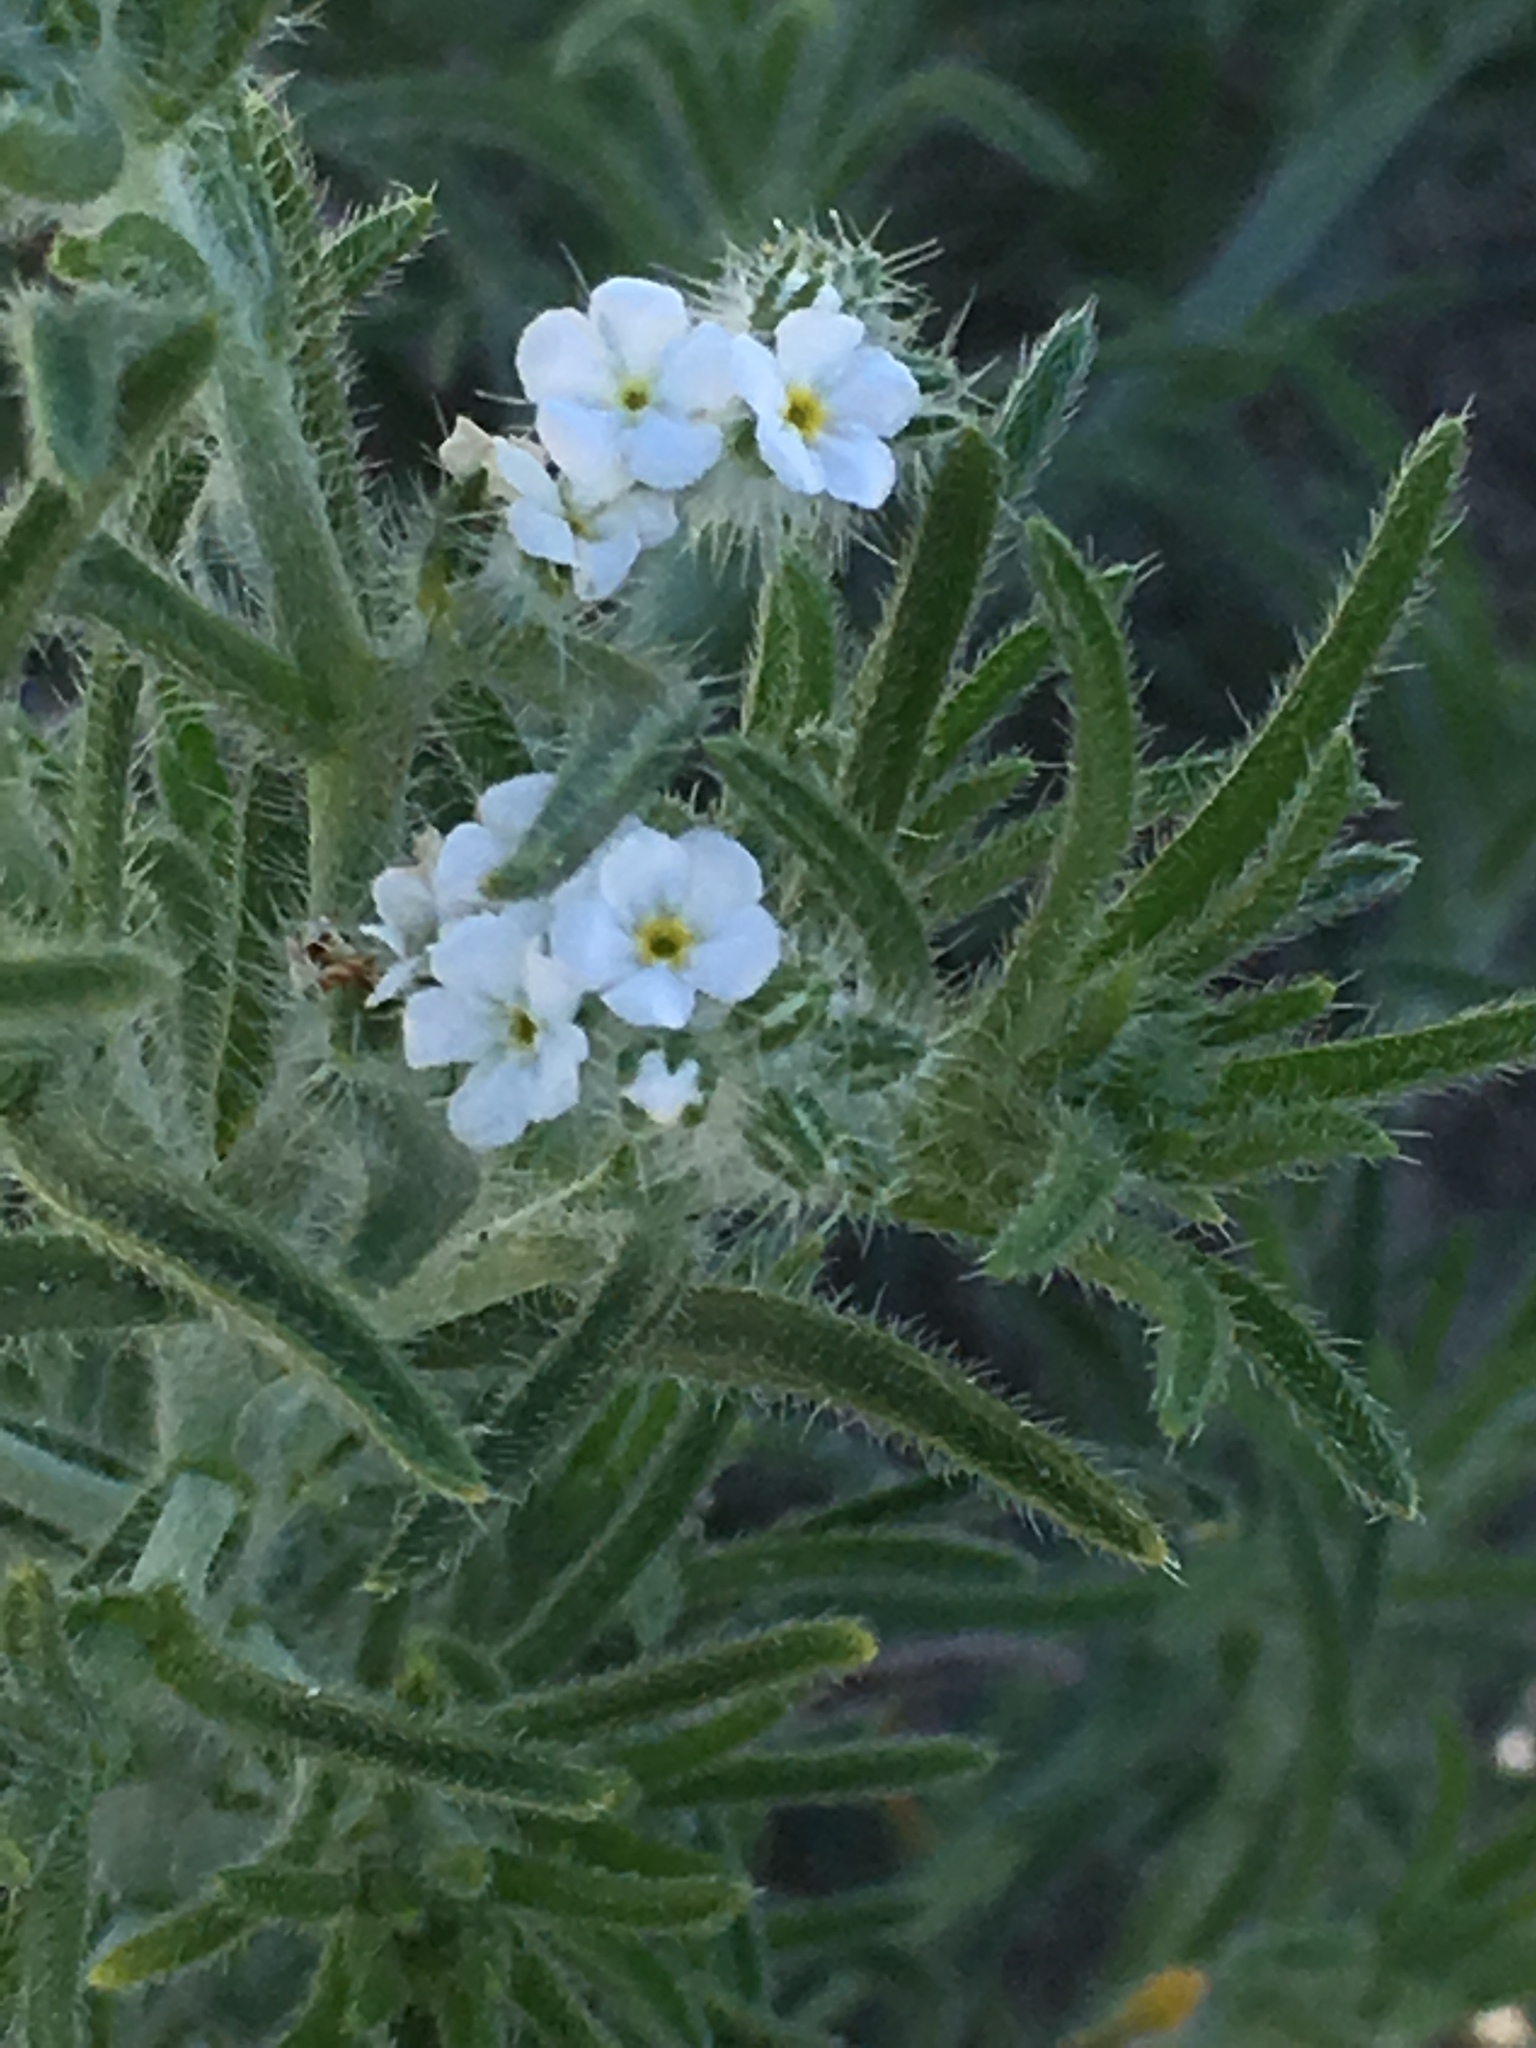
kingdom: Plantae
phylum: Tracheophyta
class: Magnoliopsida
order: Boraginales
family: Boraginaceae
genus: Johnstonella
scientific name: Johnstonella angustifolia
